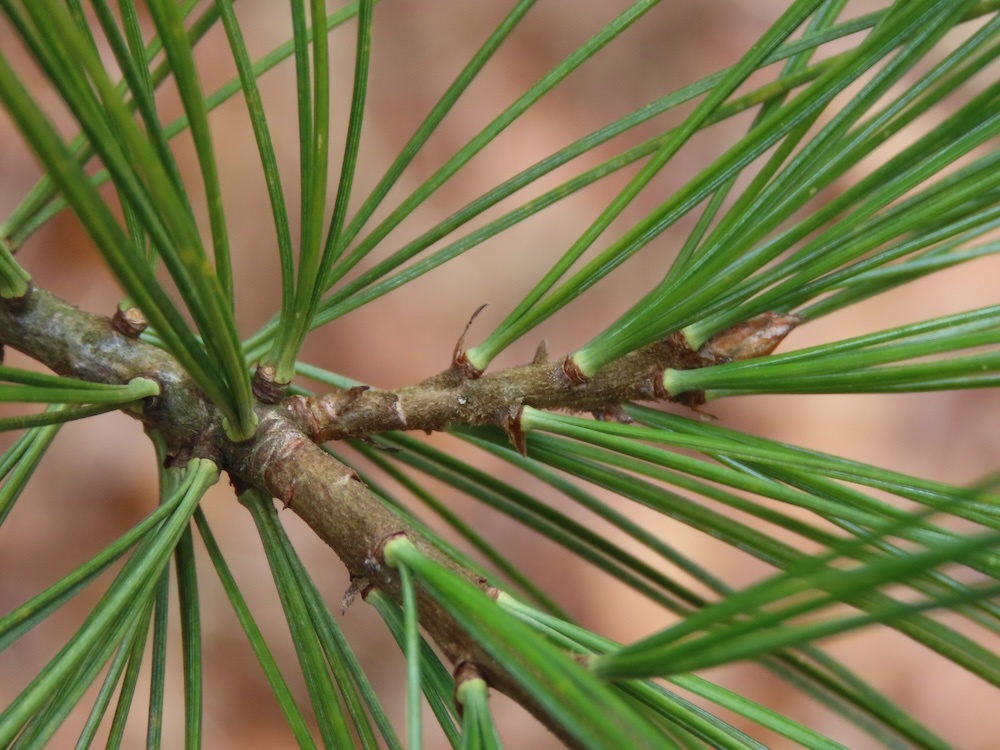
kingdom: Plantae
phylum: Tracheophyta
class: Pinopsida
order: Pinales
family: Pinaceae
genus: Pinus
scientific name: Pinus strobus
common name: Weymouth pine
